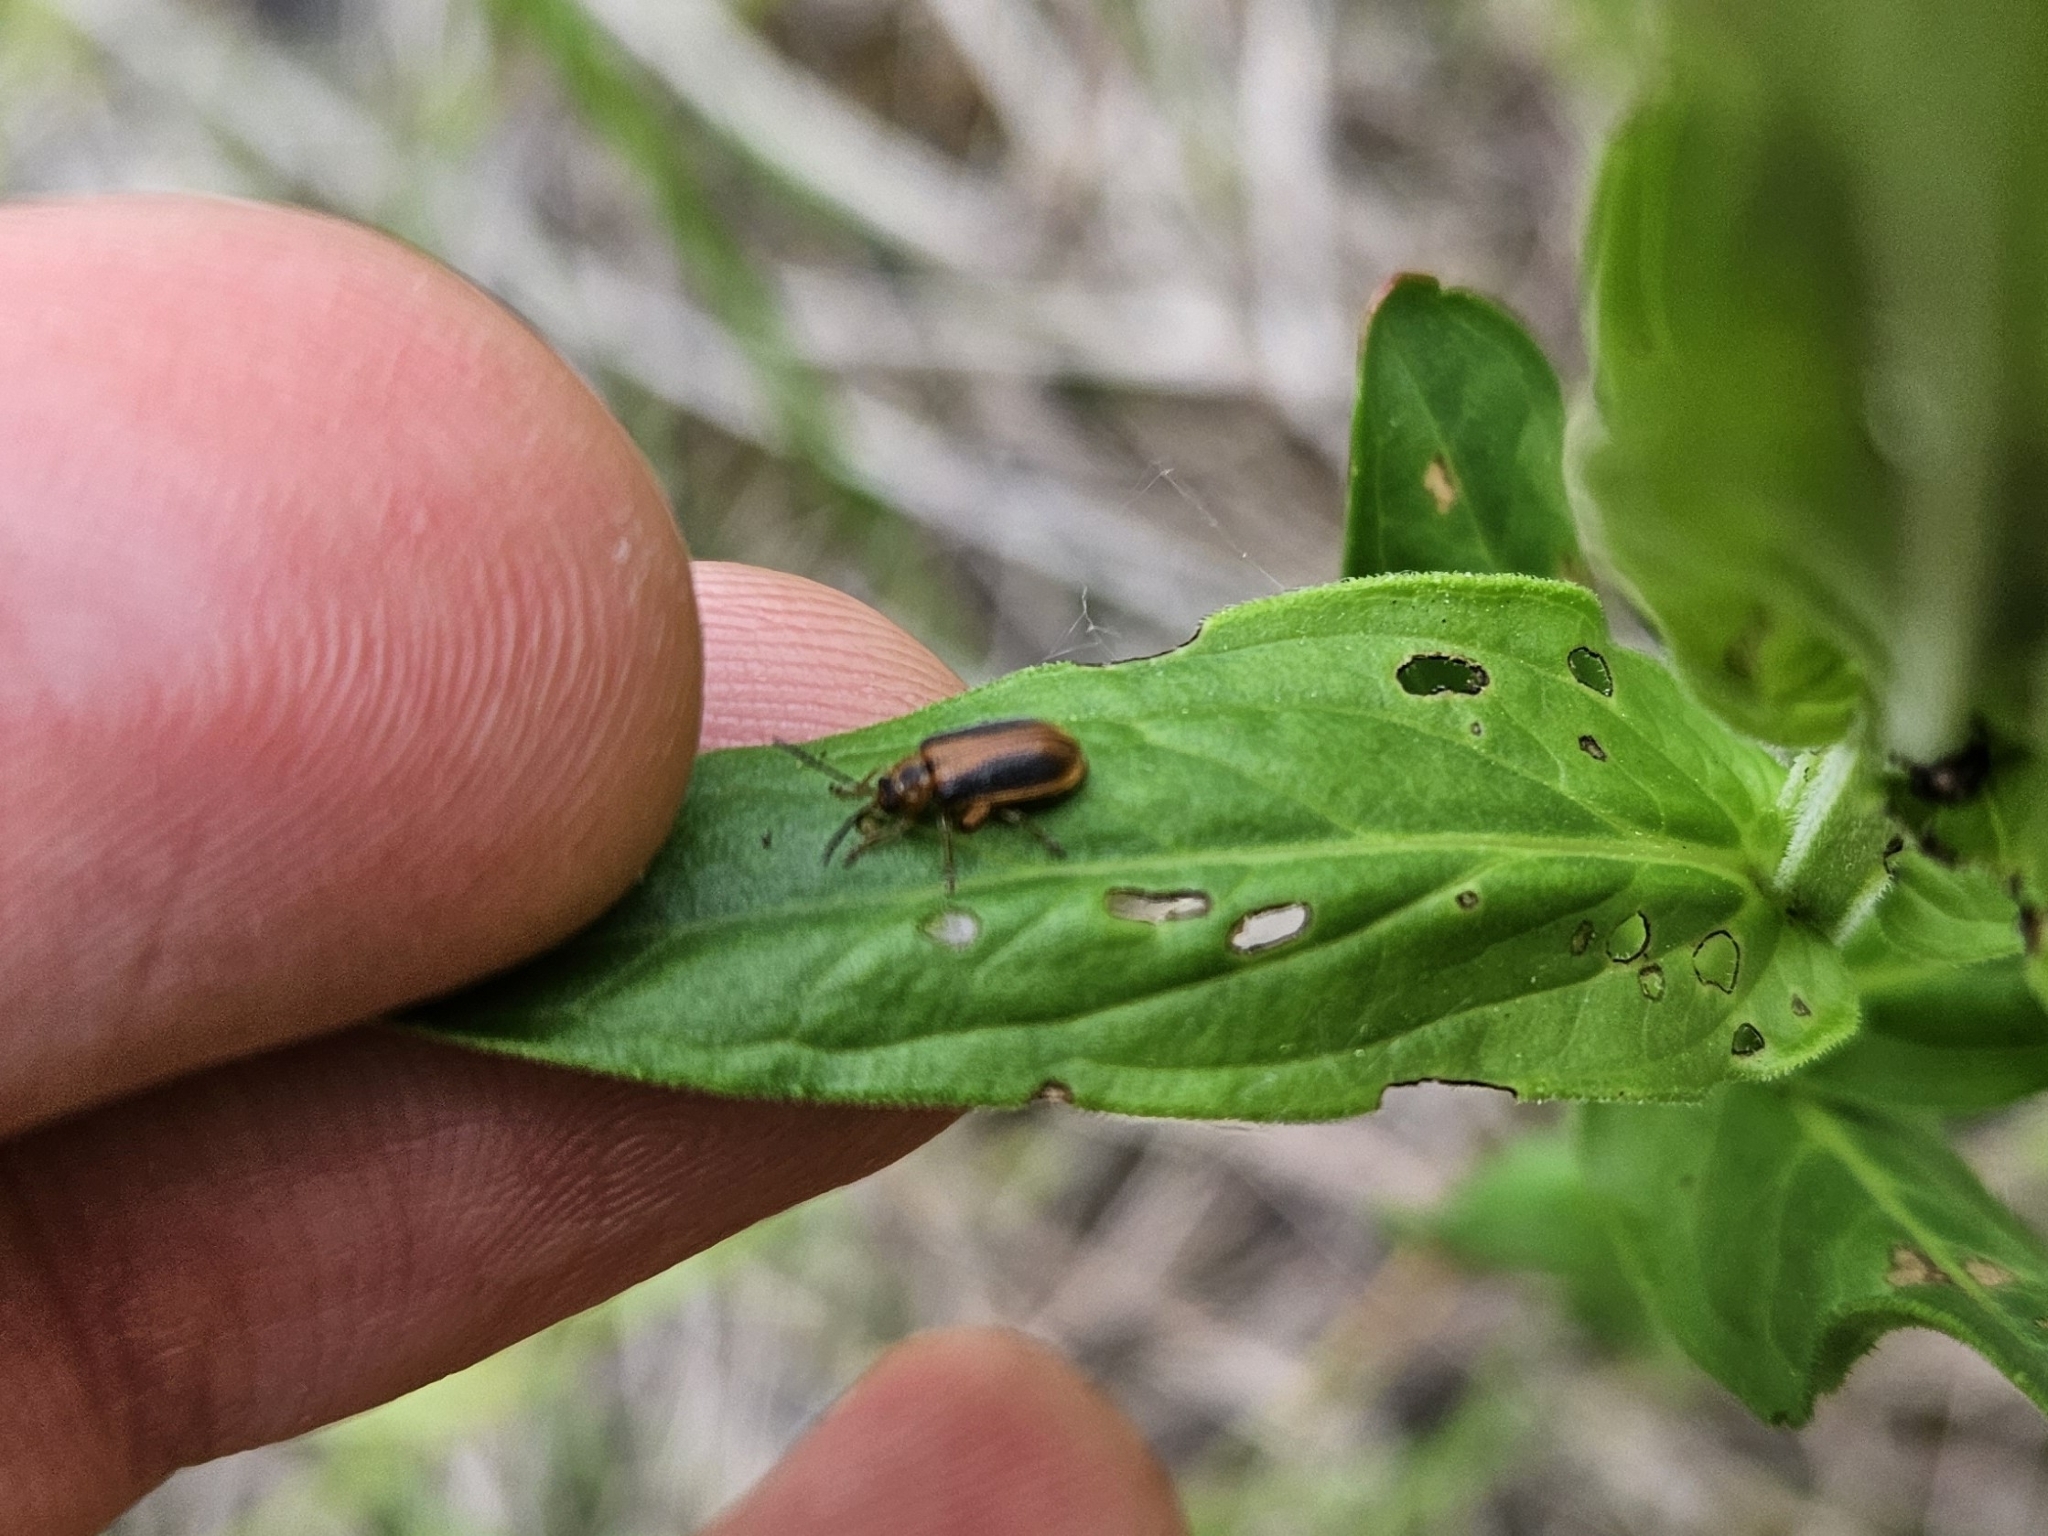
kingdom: Animalia
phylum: Arthropoda
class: Insecta
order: Coleoptera
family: Chrysomelidae
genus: Neogalerucella
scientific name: Neogalerucella calmariensis
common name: Black-margined loosestrife beetle
